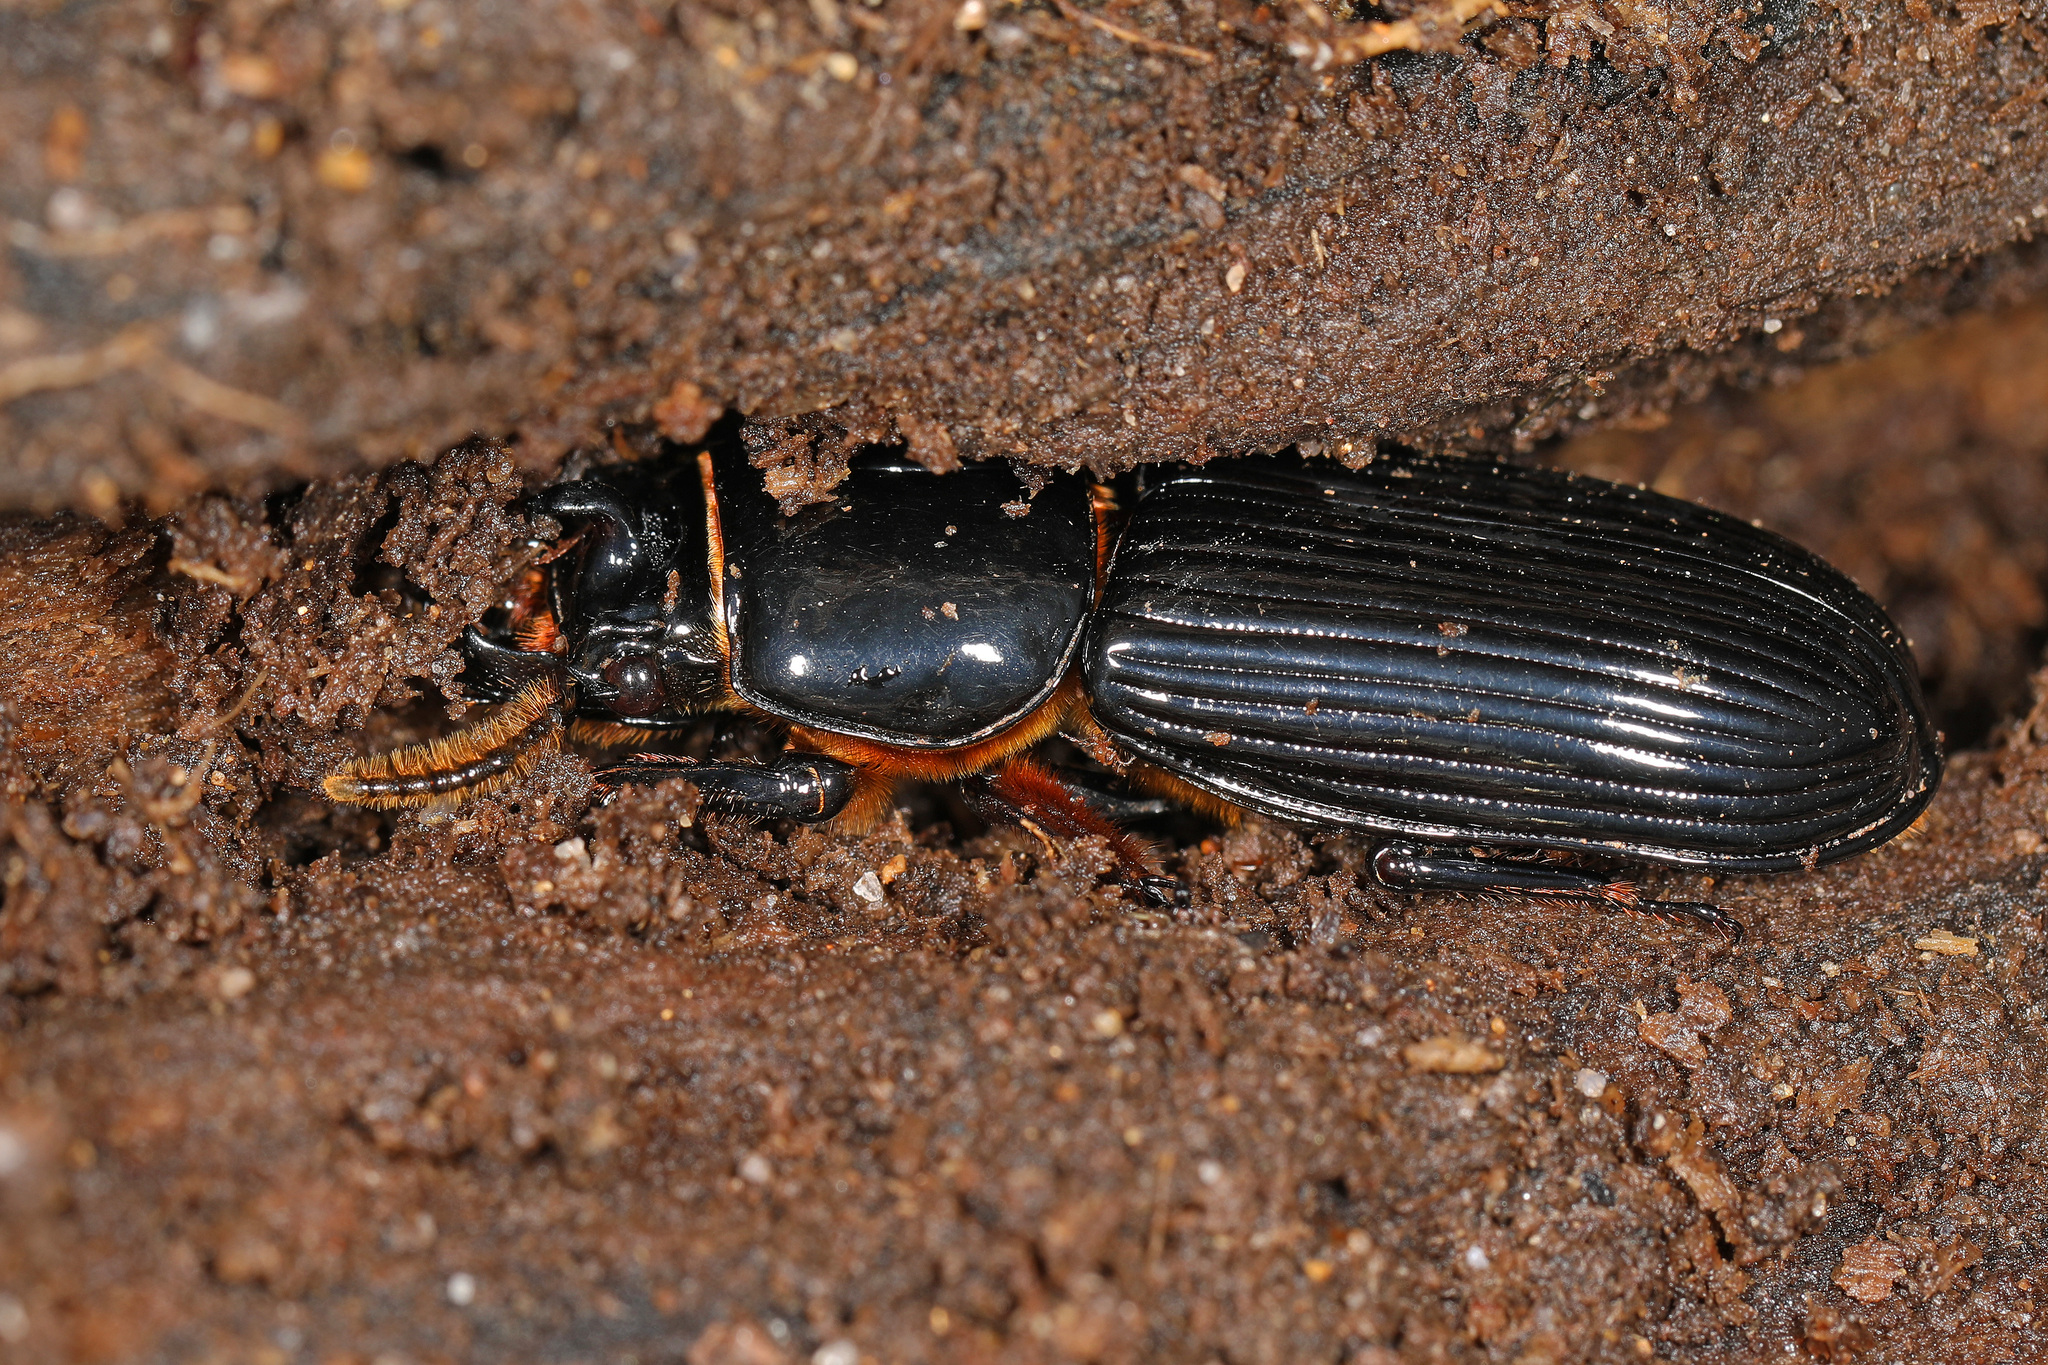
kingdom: Animalia
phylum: Arthropoda
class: Insecta
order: Coleoptera
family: Passalidae
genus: Odontotaenius
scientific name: Odontotaenius disjunctus
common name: Patent leather beetle
